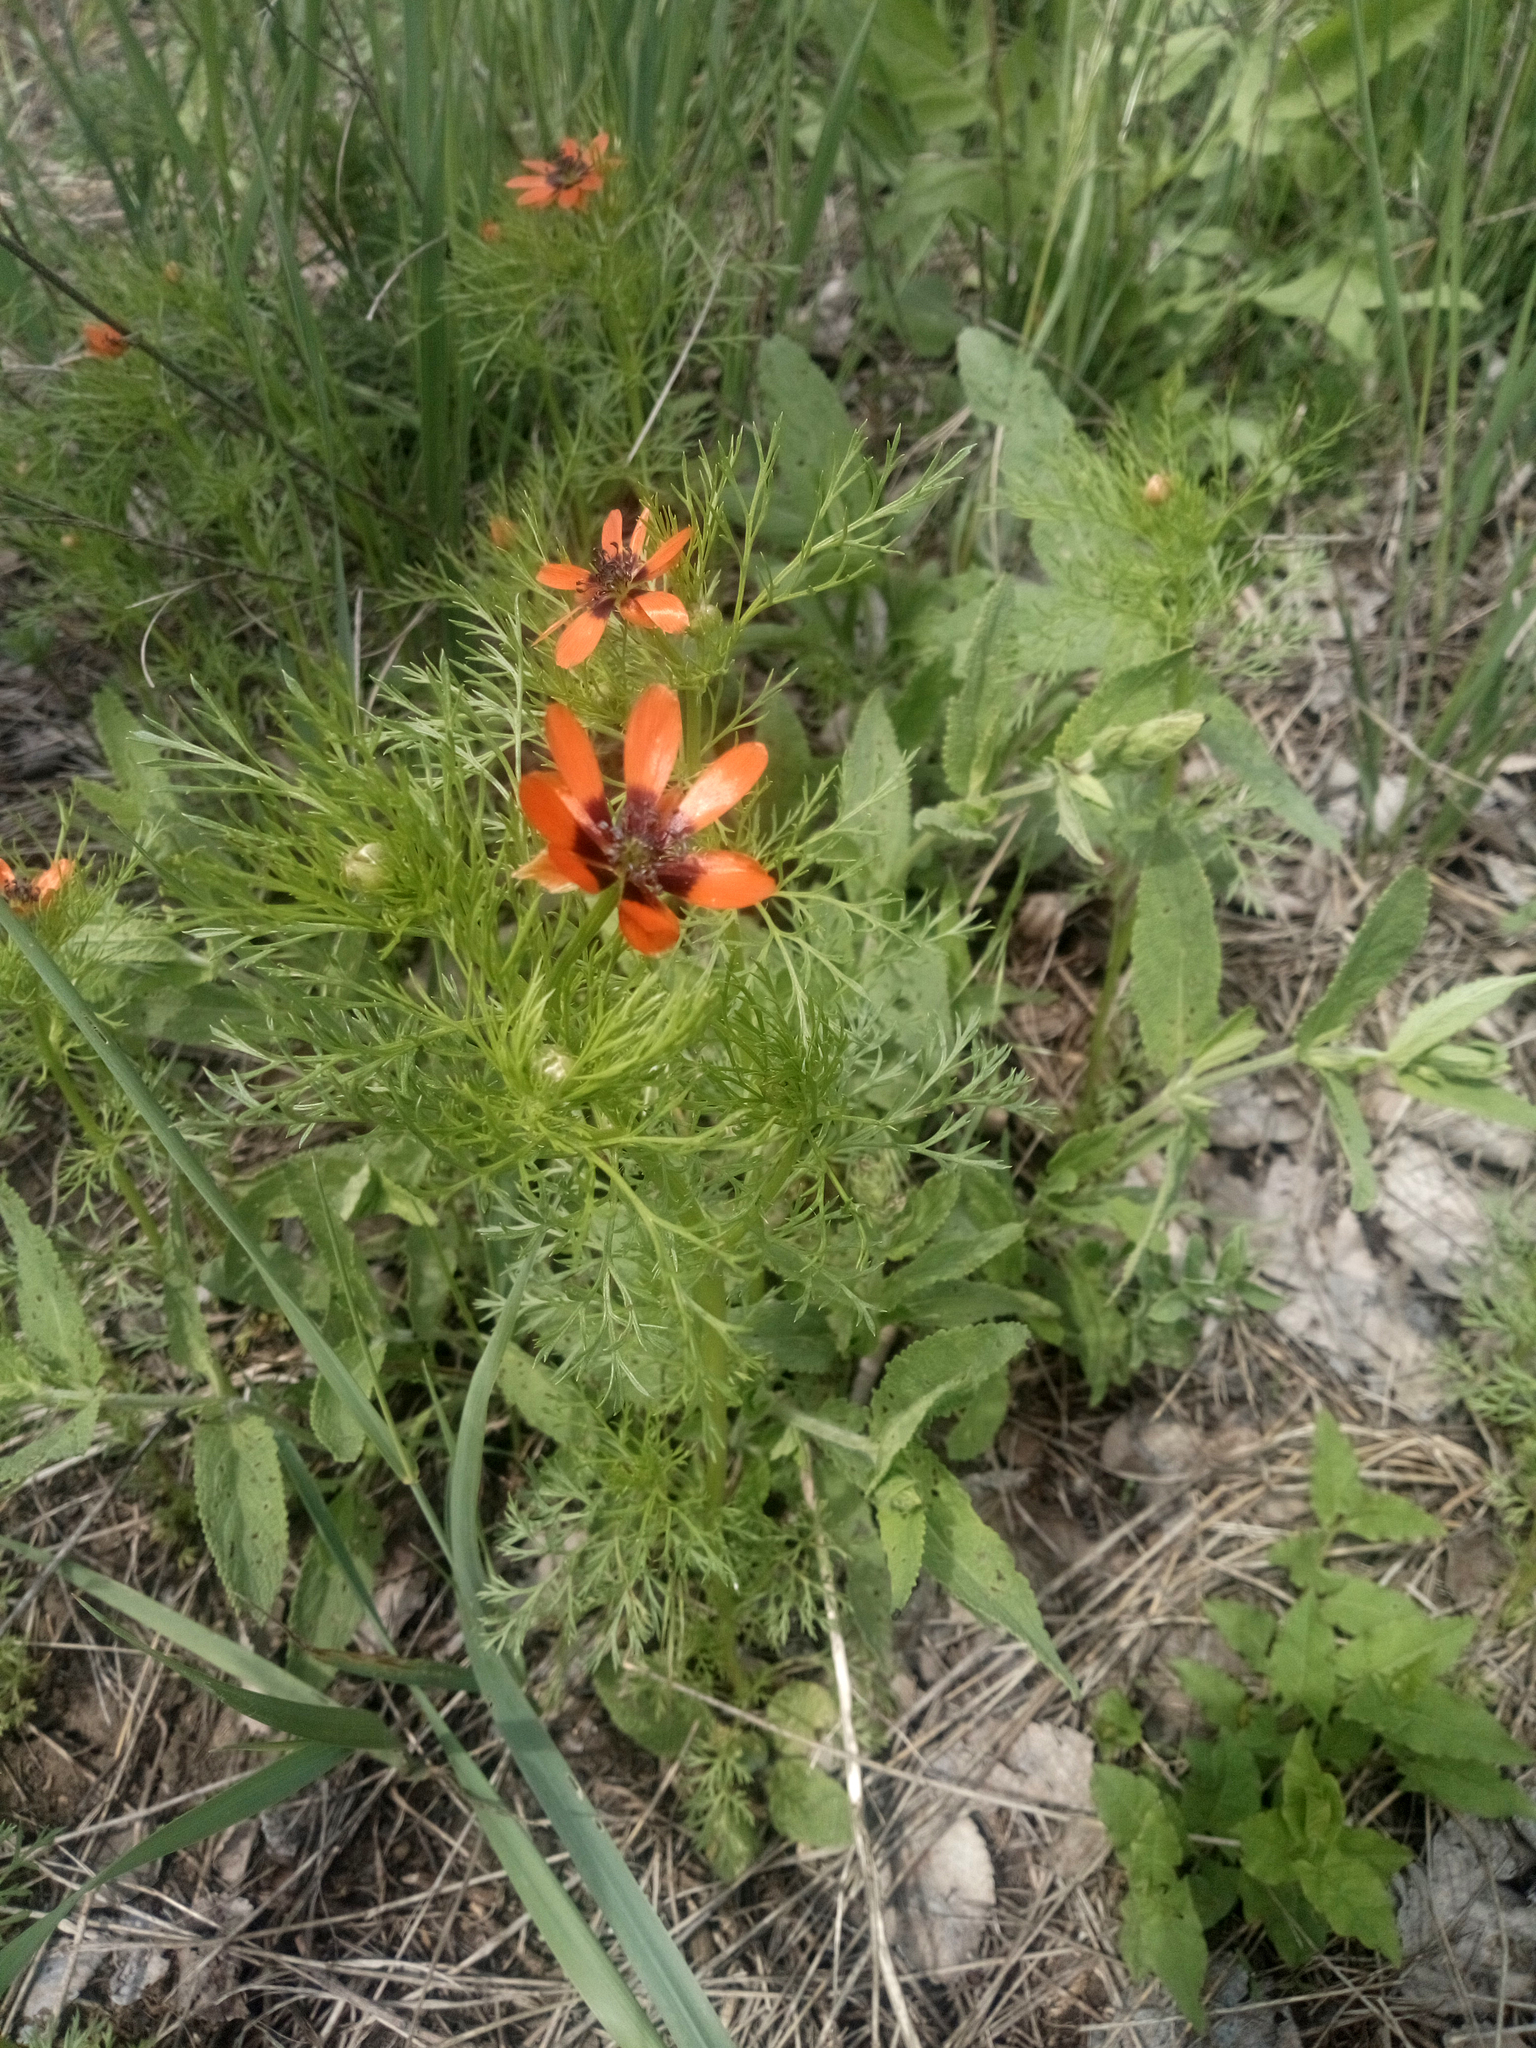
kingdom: Plantae
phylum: Tracheophyta
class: Magnoliopsida
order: Ranunculales
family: Ranunculaceae
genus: Adonis
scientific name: Adonis aestivalis
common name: Summer pheasant's-eye
